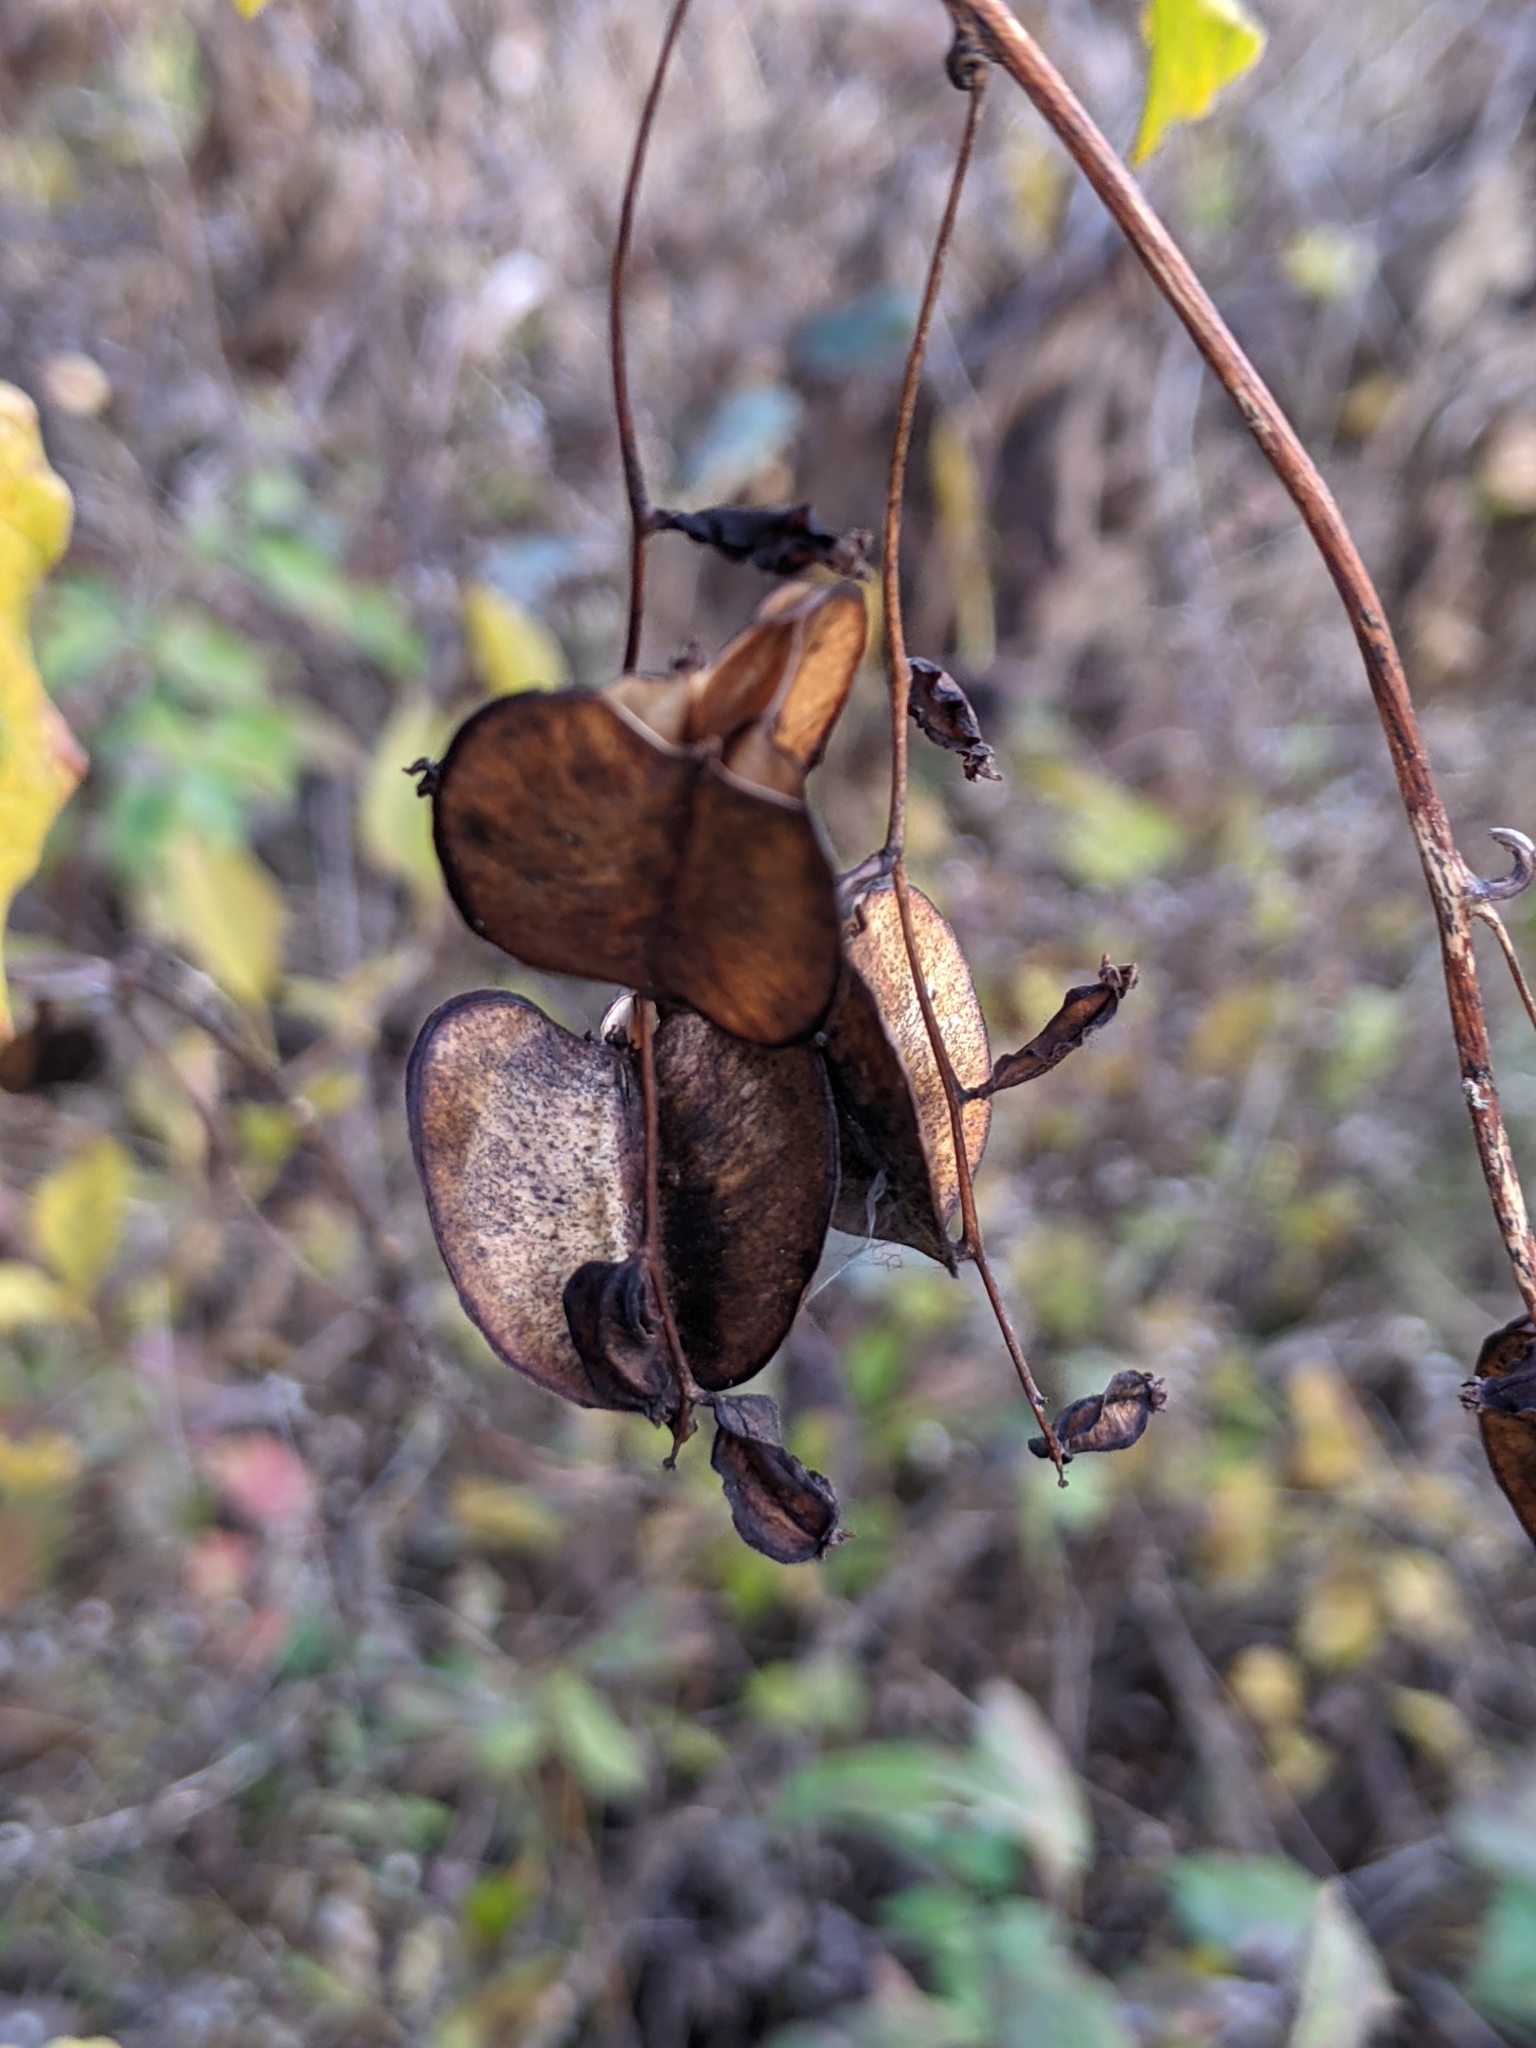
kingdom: Plantae
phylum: Tracheophyta
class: Liliopsida
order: Dioscoreales
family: Dioscoreaceae
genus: Dioscorea
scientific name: Dioscorea villosa
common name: Wild yam
